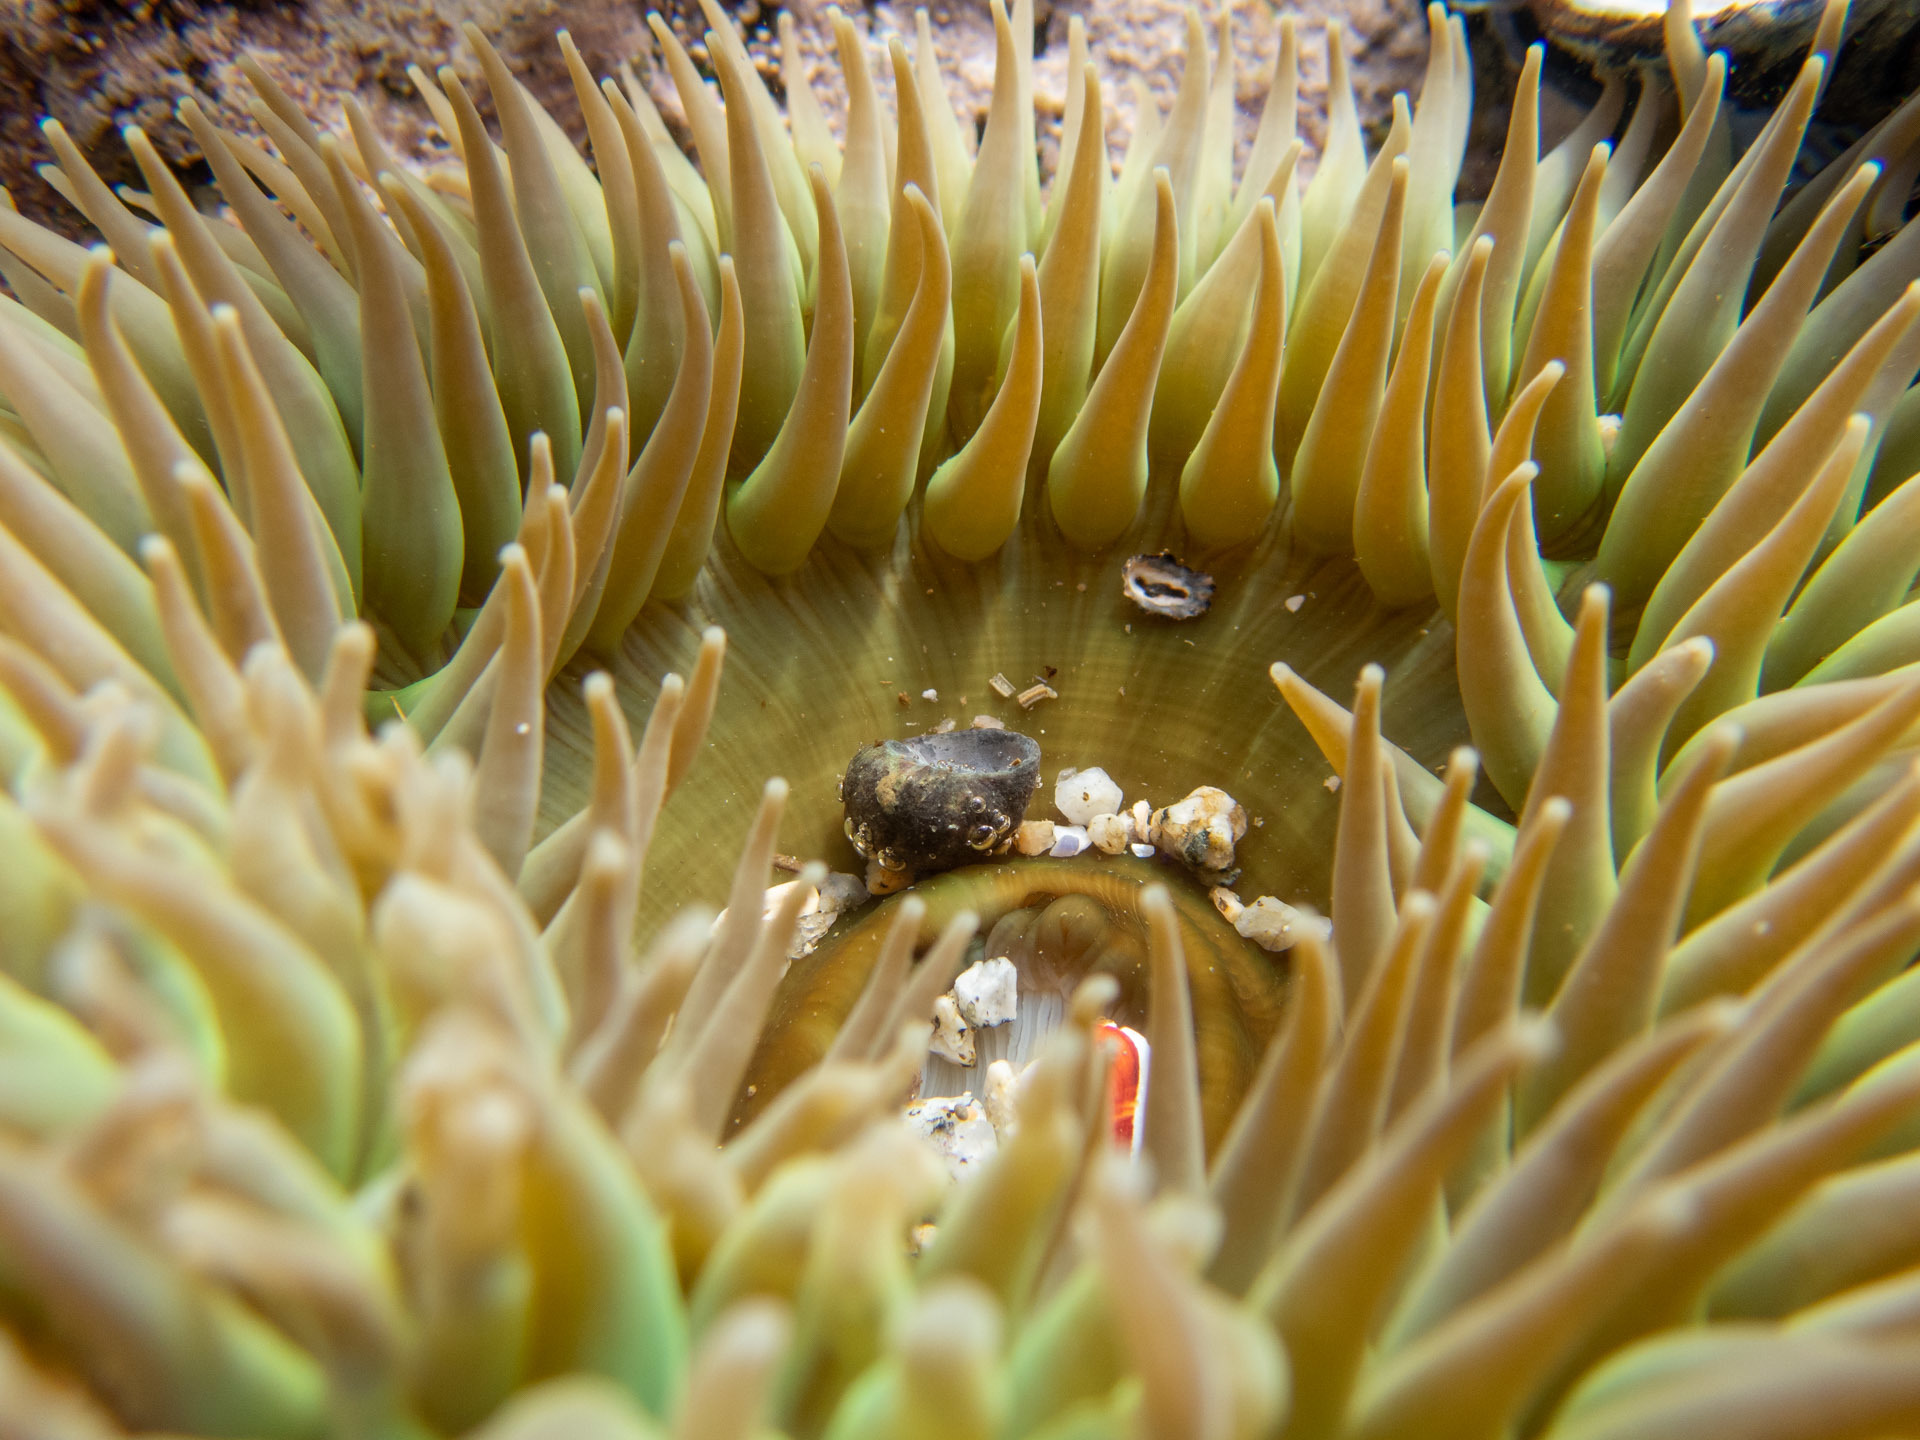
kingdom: Animalia
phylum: Cnidaria
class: Anthozoa
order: Actiniaria
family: Actiniidae
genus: Anthopleura
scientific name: Anthopleura xanthogrammica
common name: Giant green anemone
